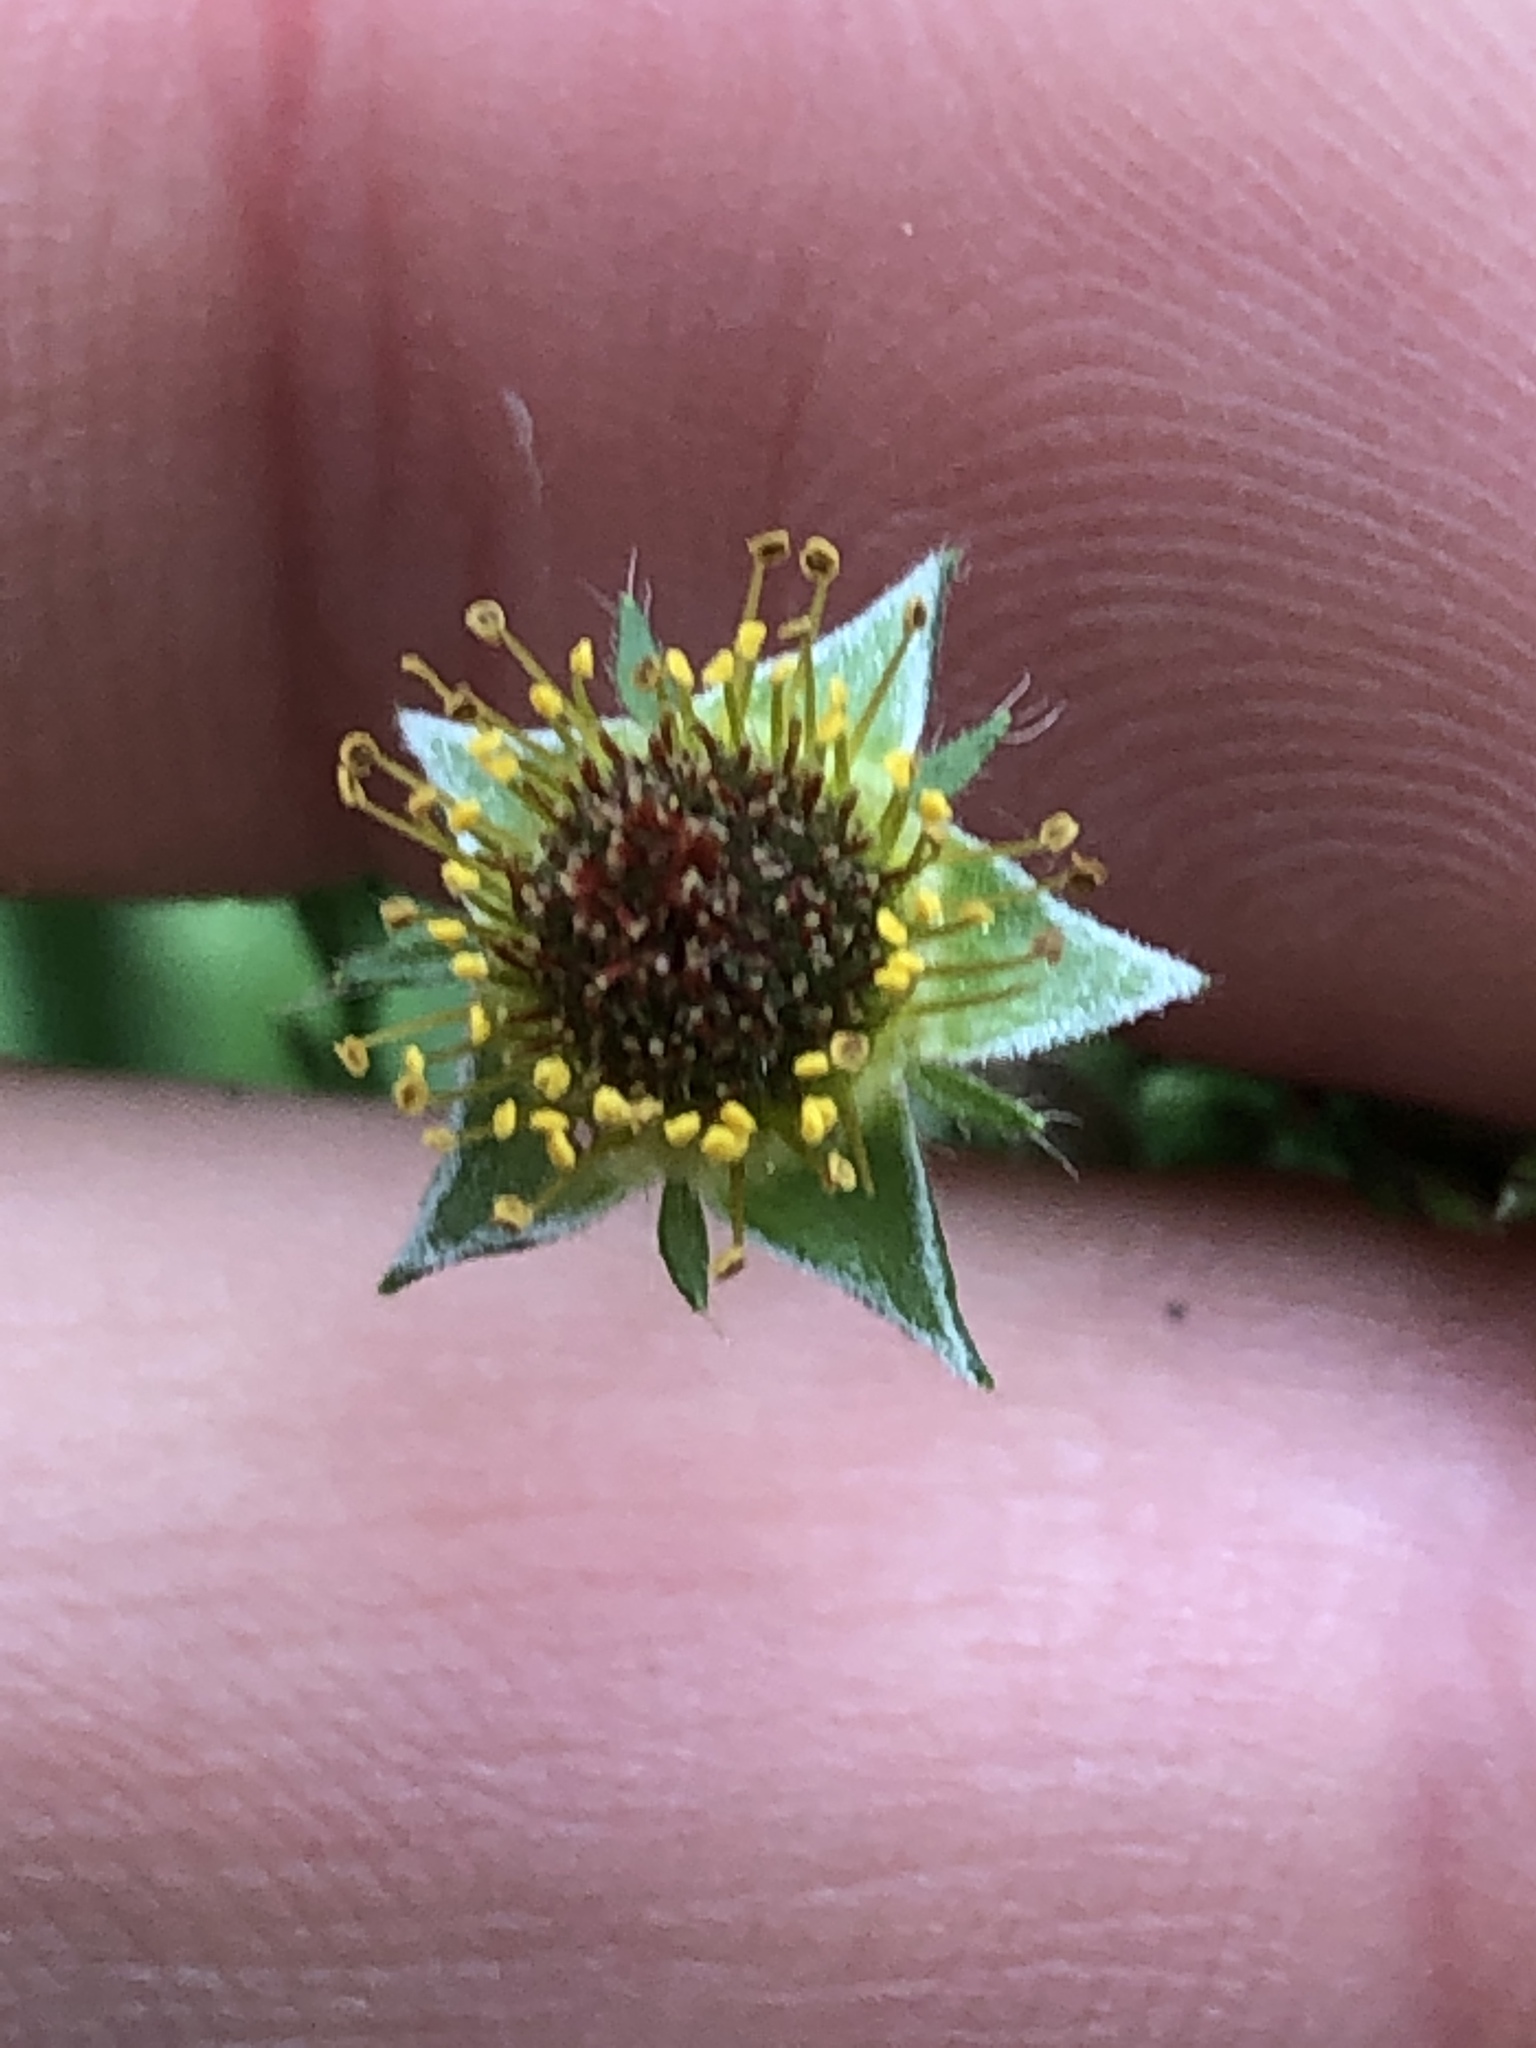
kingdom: Plantae
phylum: Tracheophyta
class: Magnoliopsida
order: Rosales
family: Rosaceae
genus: Geum
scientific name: Geum urbanum
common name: Wood avens
